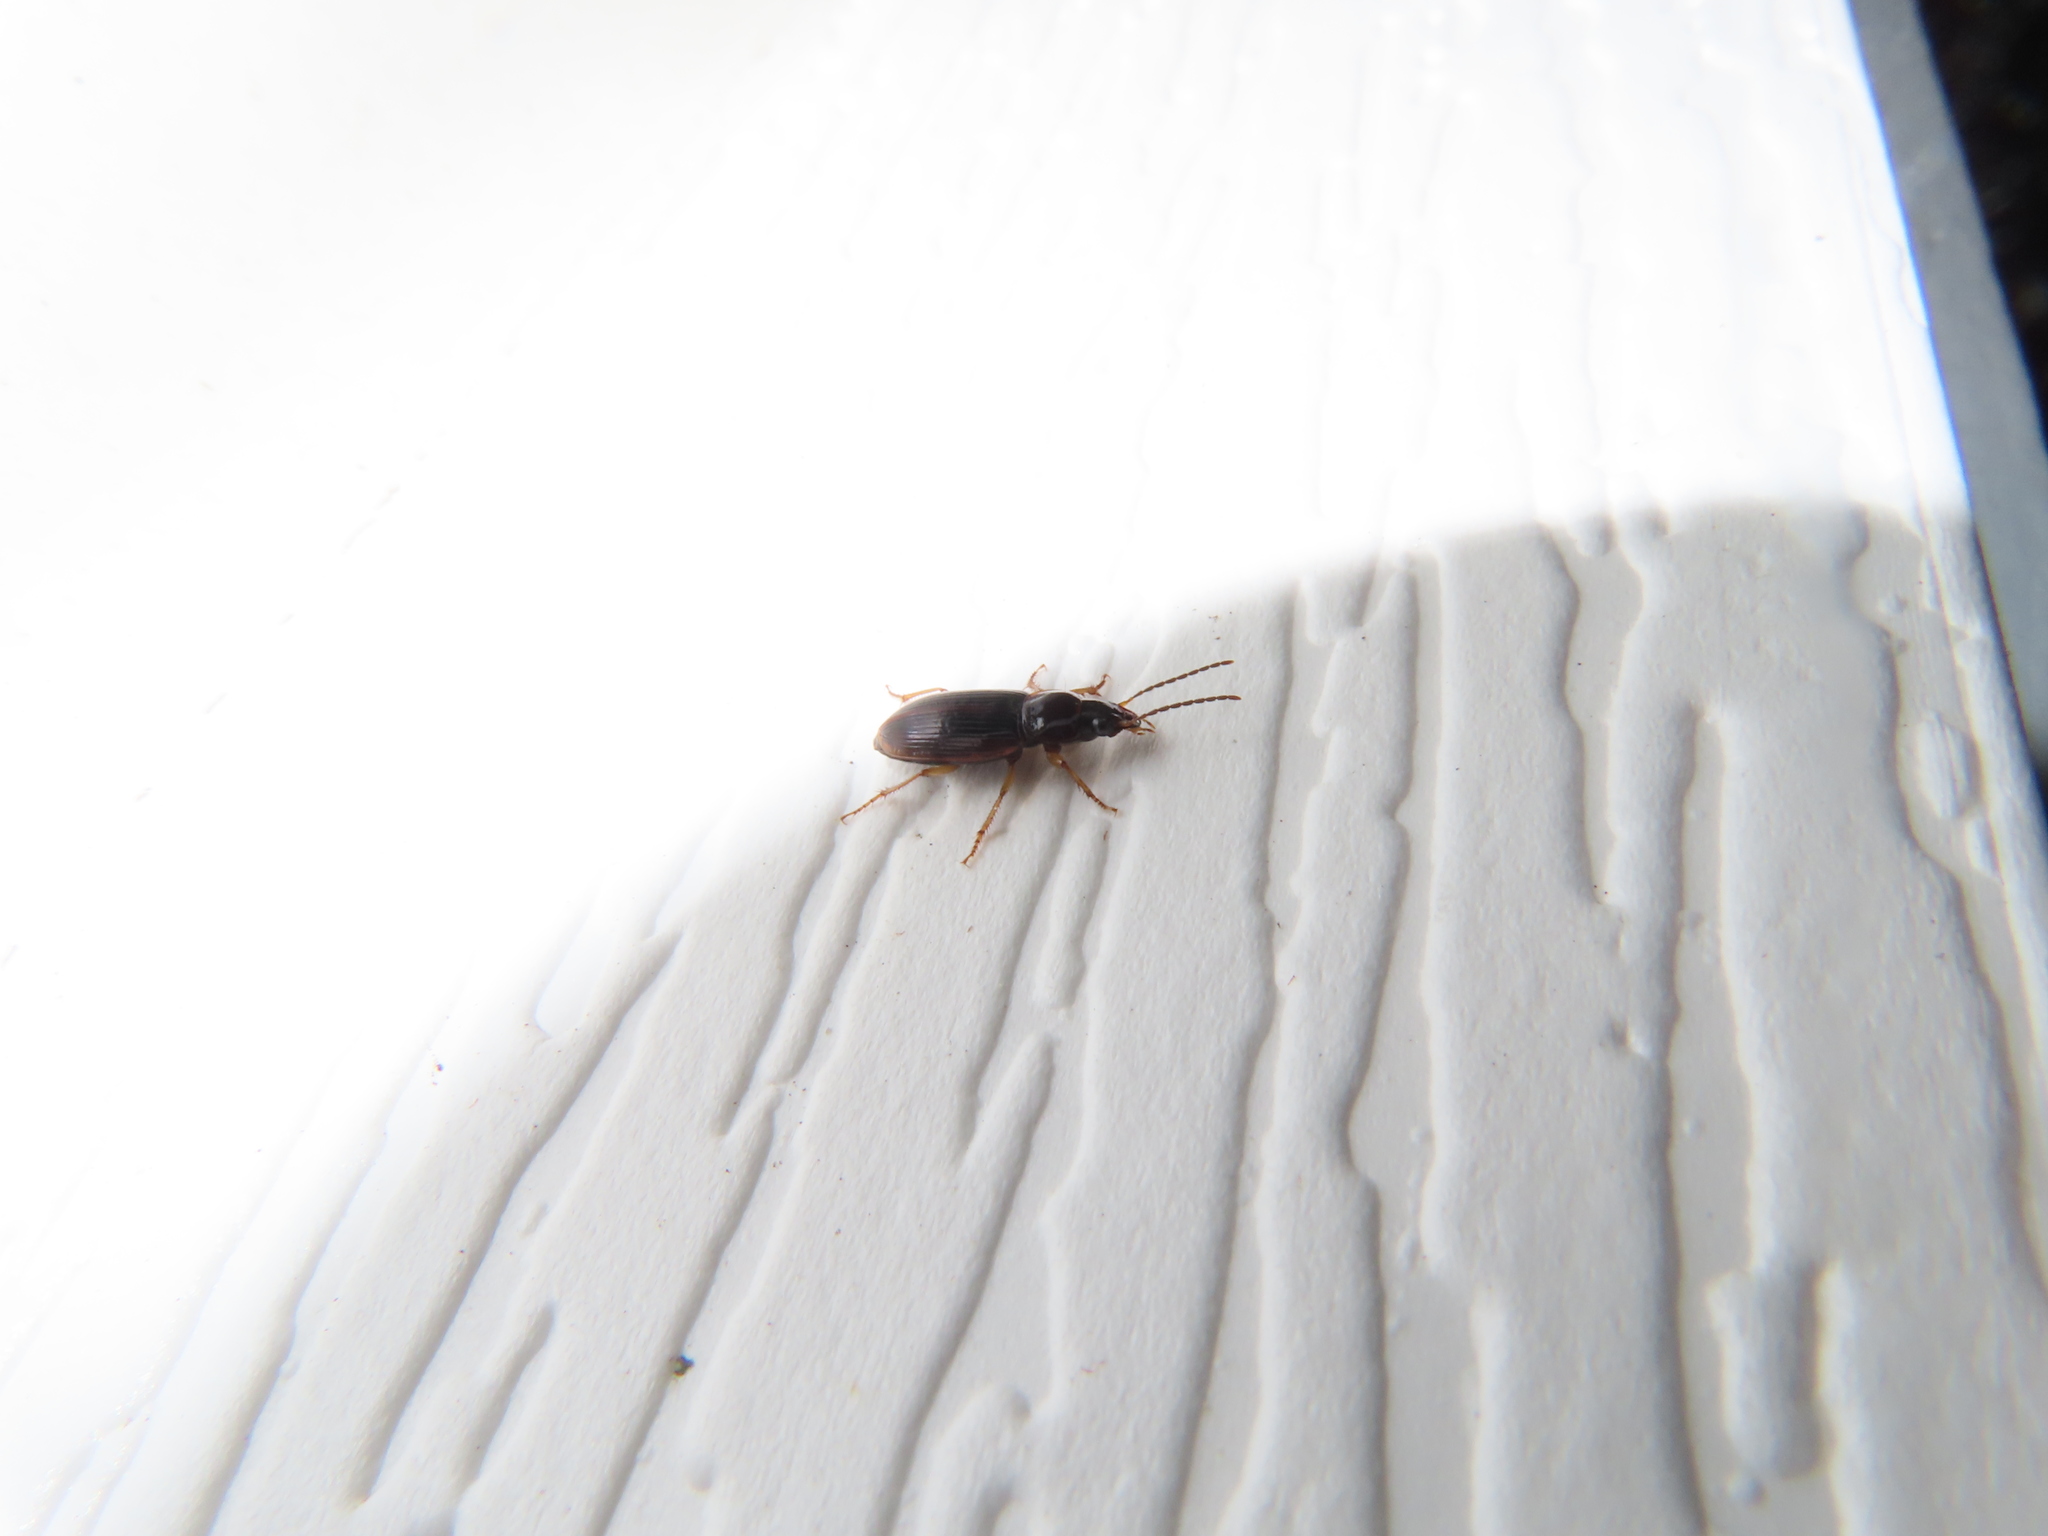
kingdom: Animalia
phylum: Arthropoda
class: Insecta
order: Coleoptera
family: Carabidae
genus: Stenolophus
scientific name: Stenolophus ochropezus
